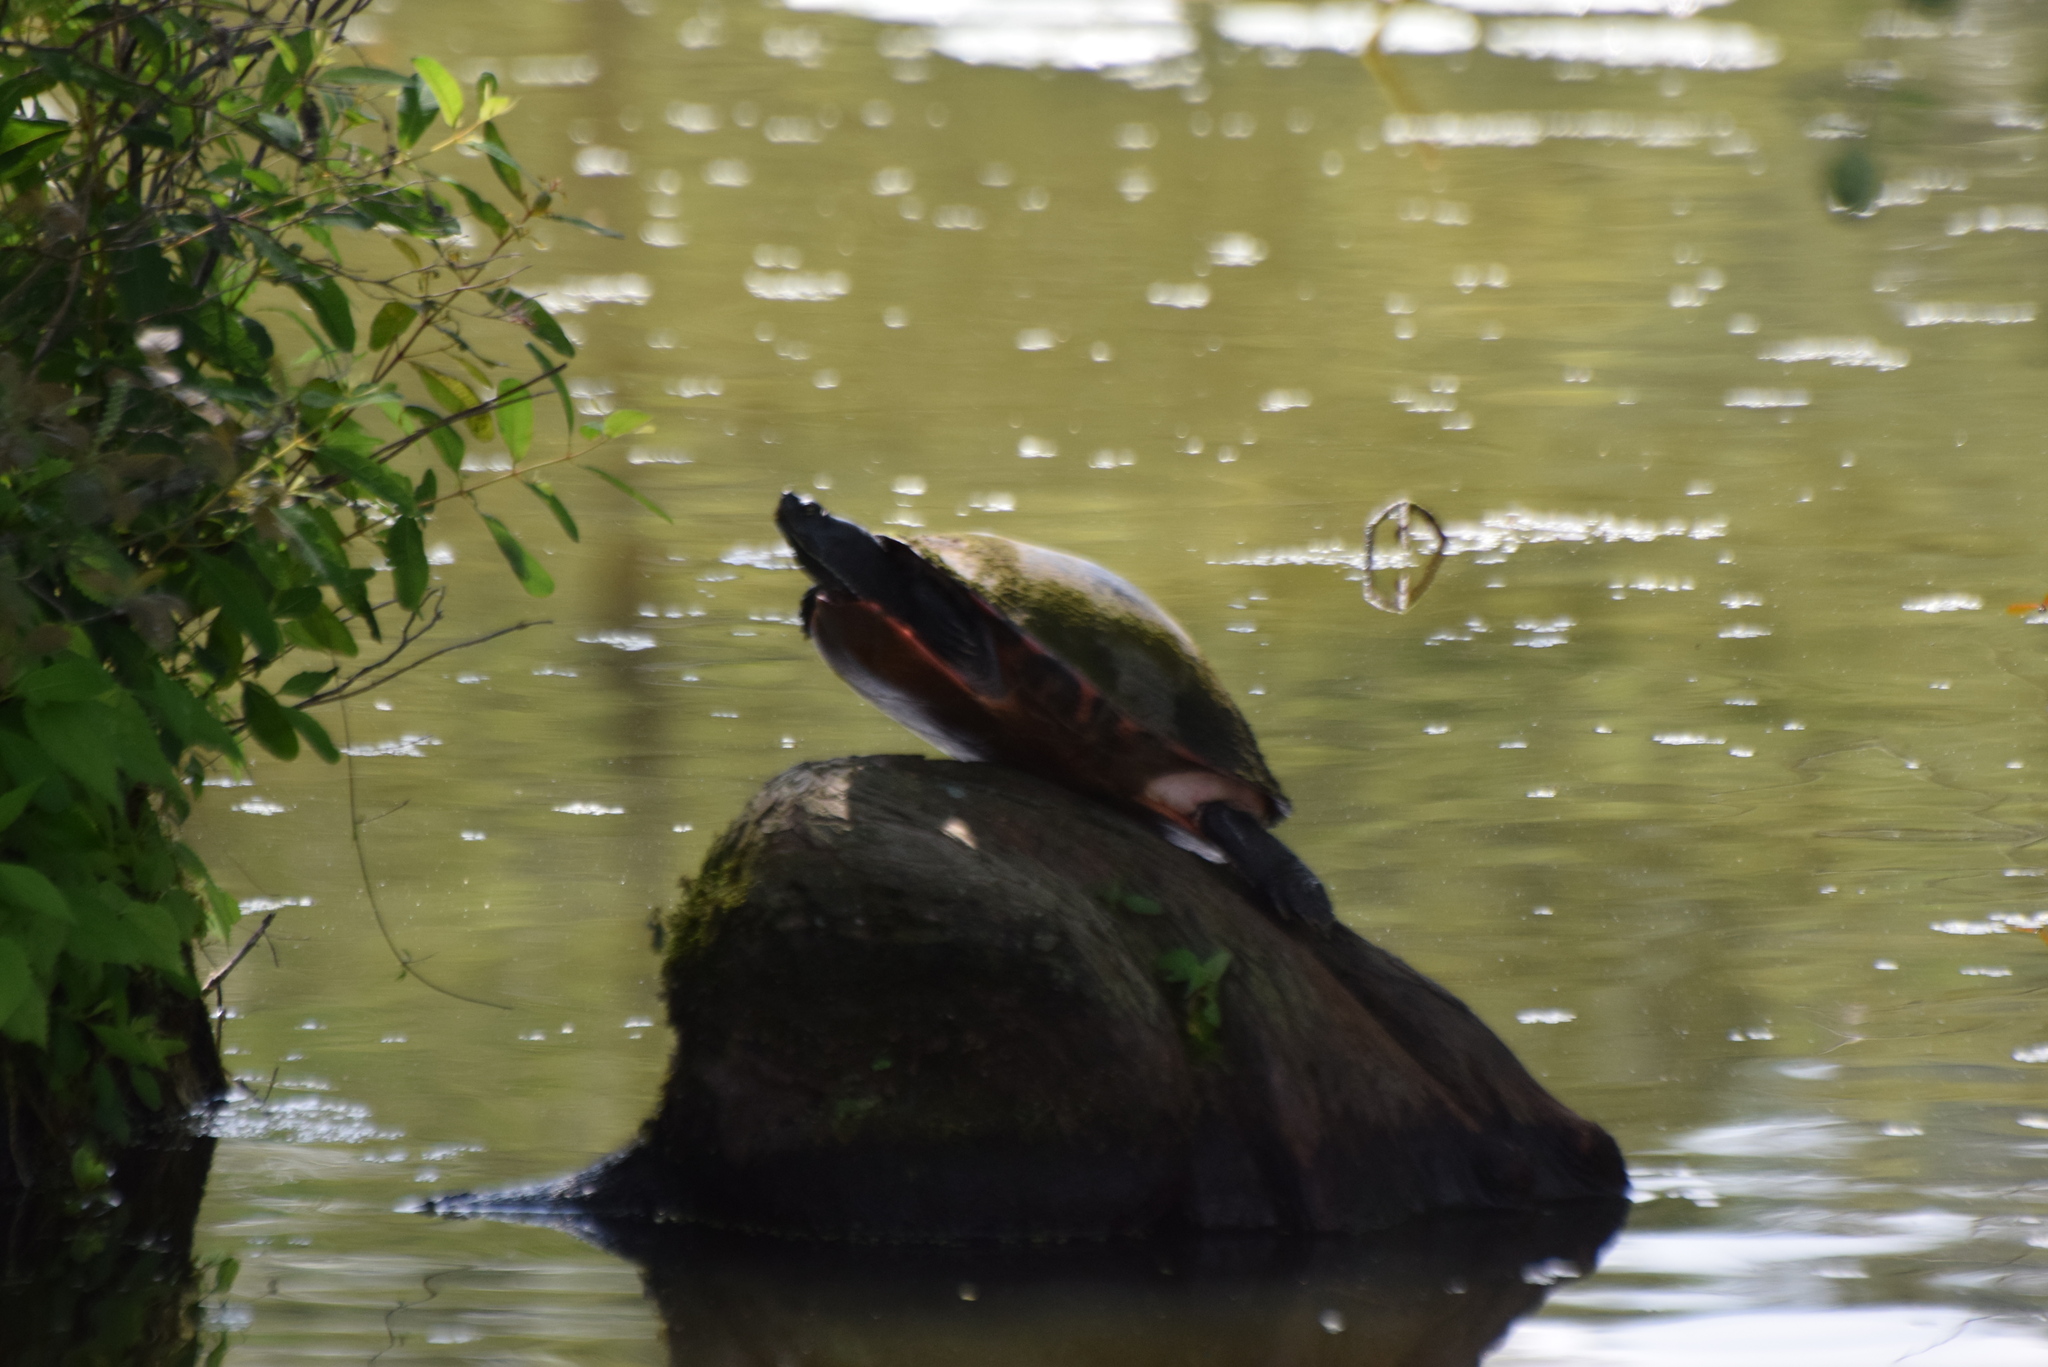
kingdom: Animalia
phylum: Chordata
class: Testudines
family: Emydidae
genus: Pseudemys
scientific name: Pseudemys rubriventris
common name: American red-bellied turtle
